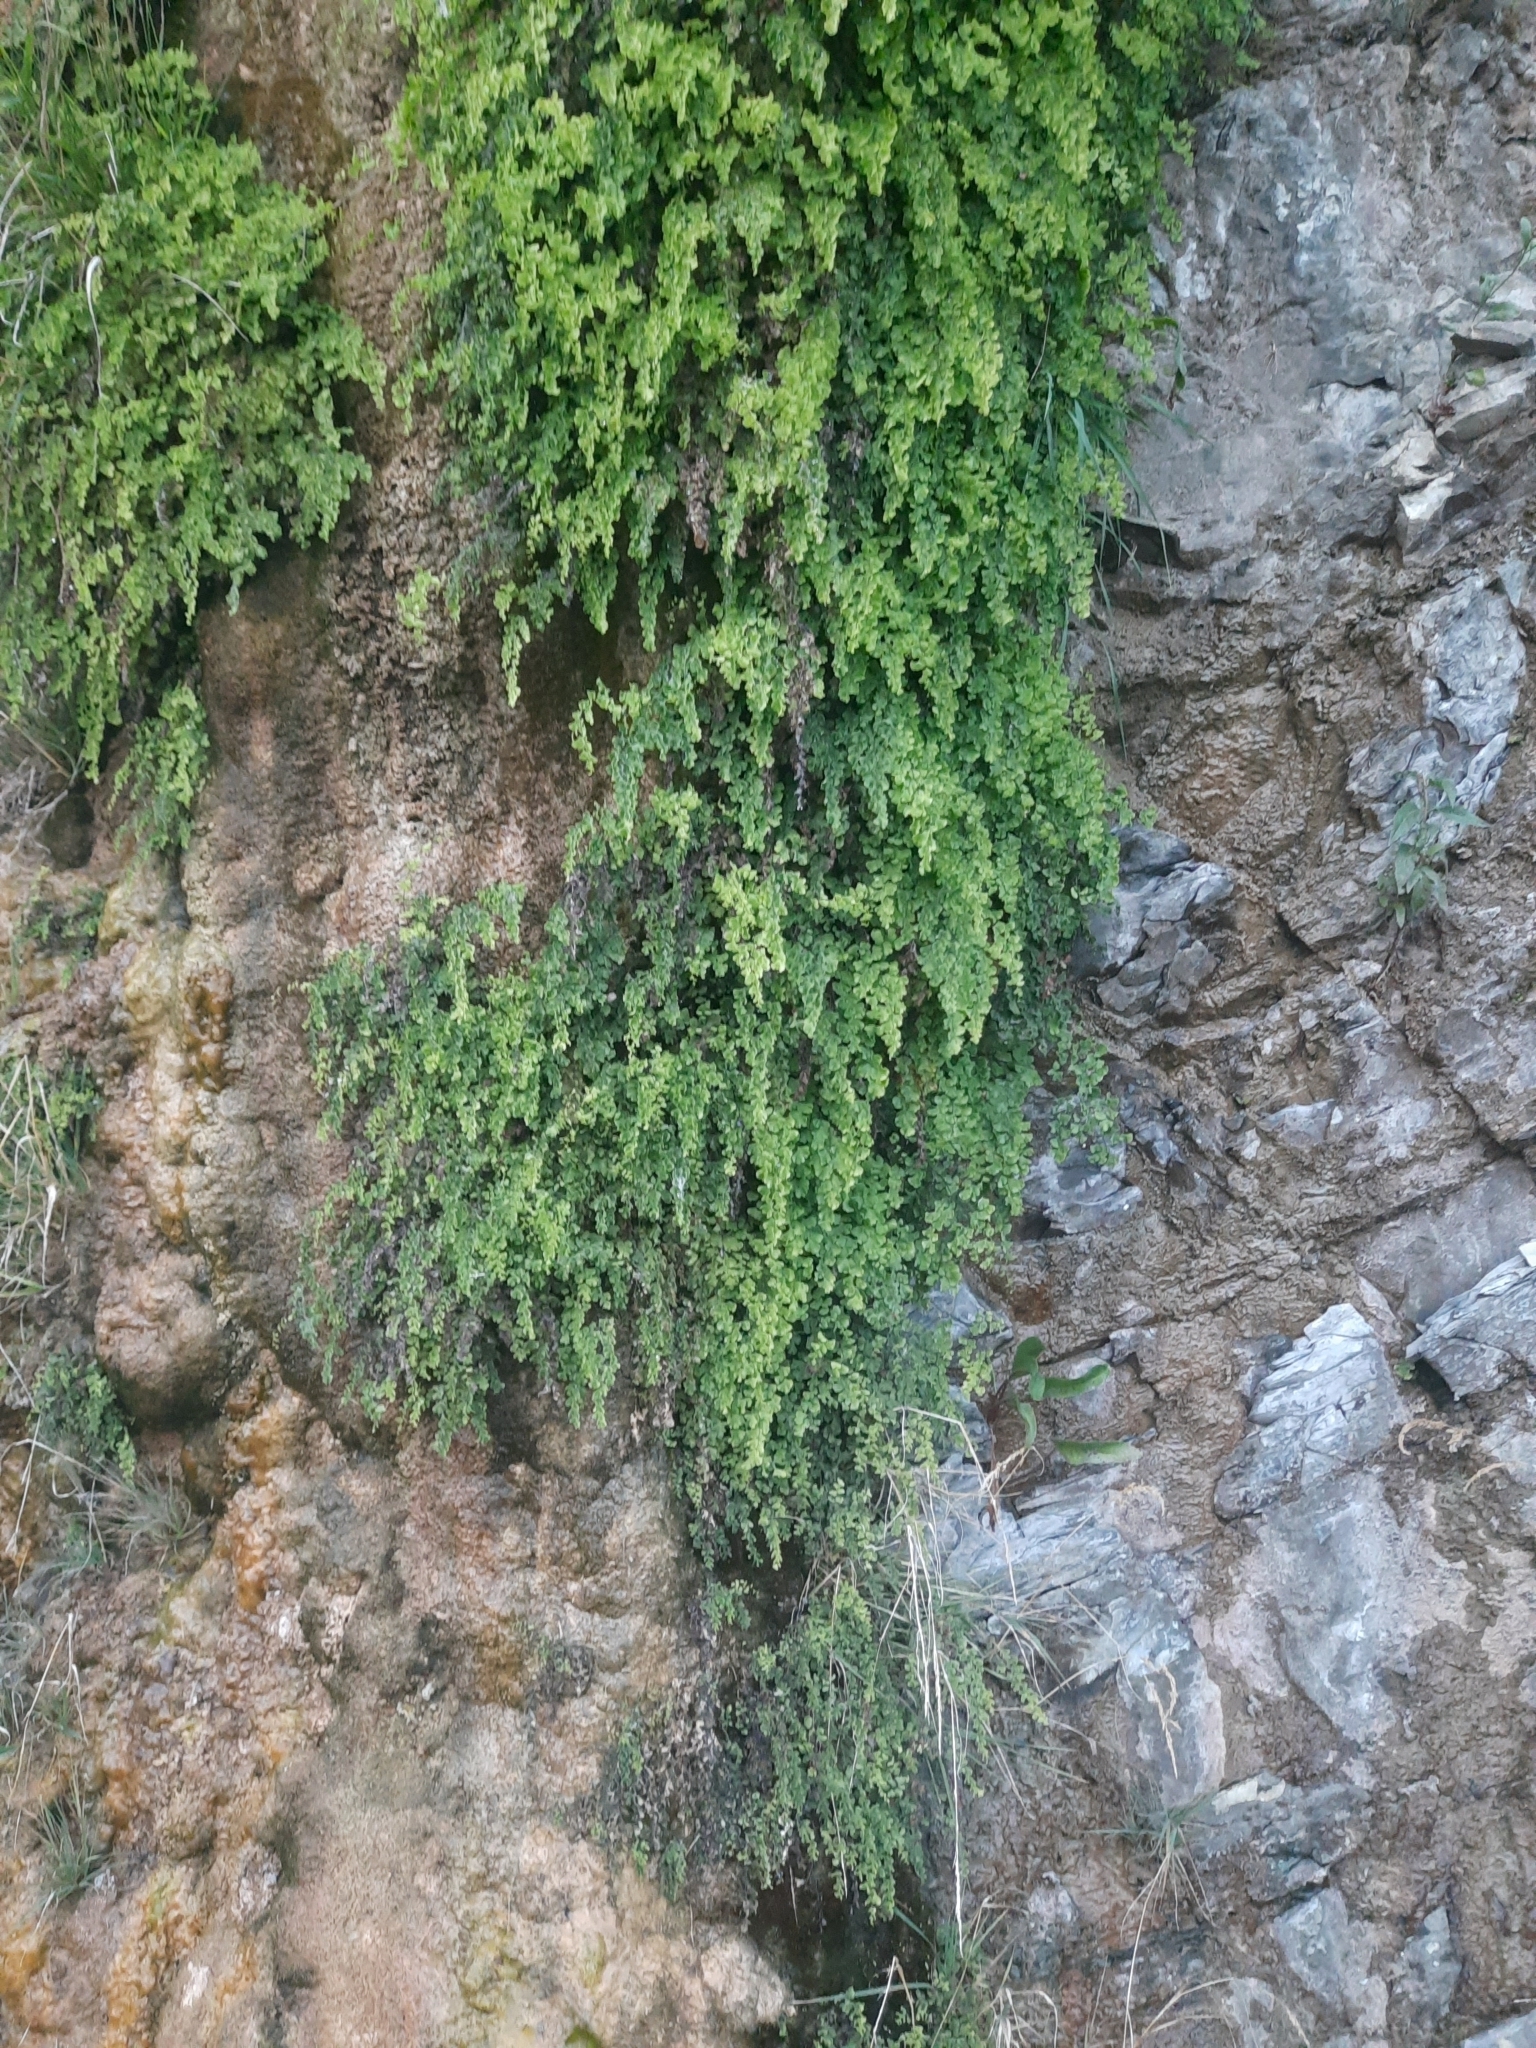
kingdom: Plantae
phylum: Tracheophyta
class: Polypodiopsida
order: Polypodiales
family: Pteridaceae
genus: Adiantum
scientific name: Adiantum capillus-veneris
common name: Maidenhair fern
